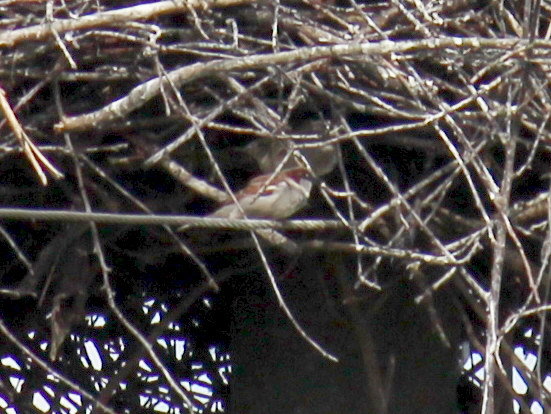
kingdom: Animalia
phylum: Chordata
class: Aves
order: Passeriformes
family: Passeridae
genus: Passer
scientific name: Passer domesticus
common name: House sparrow
